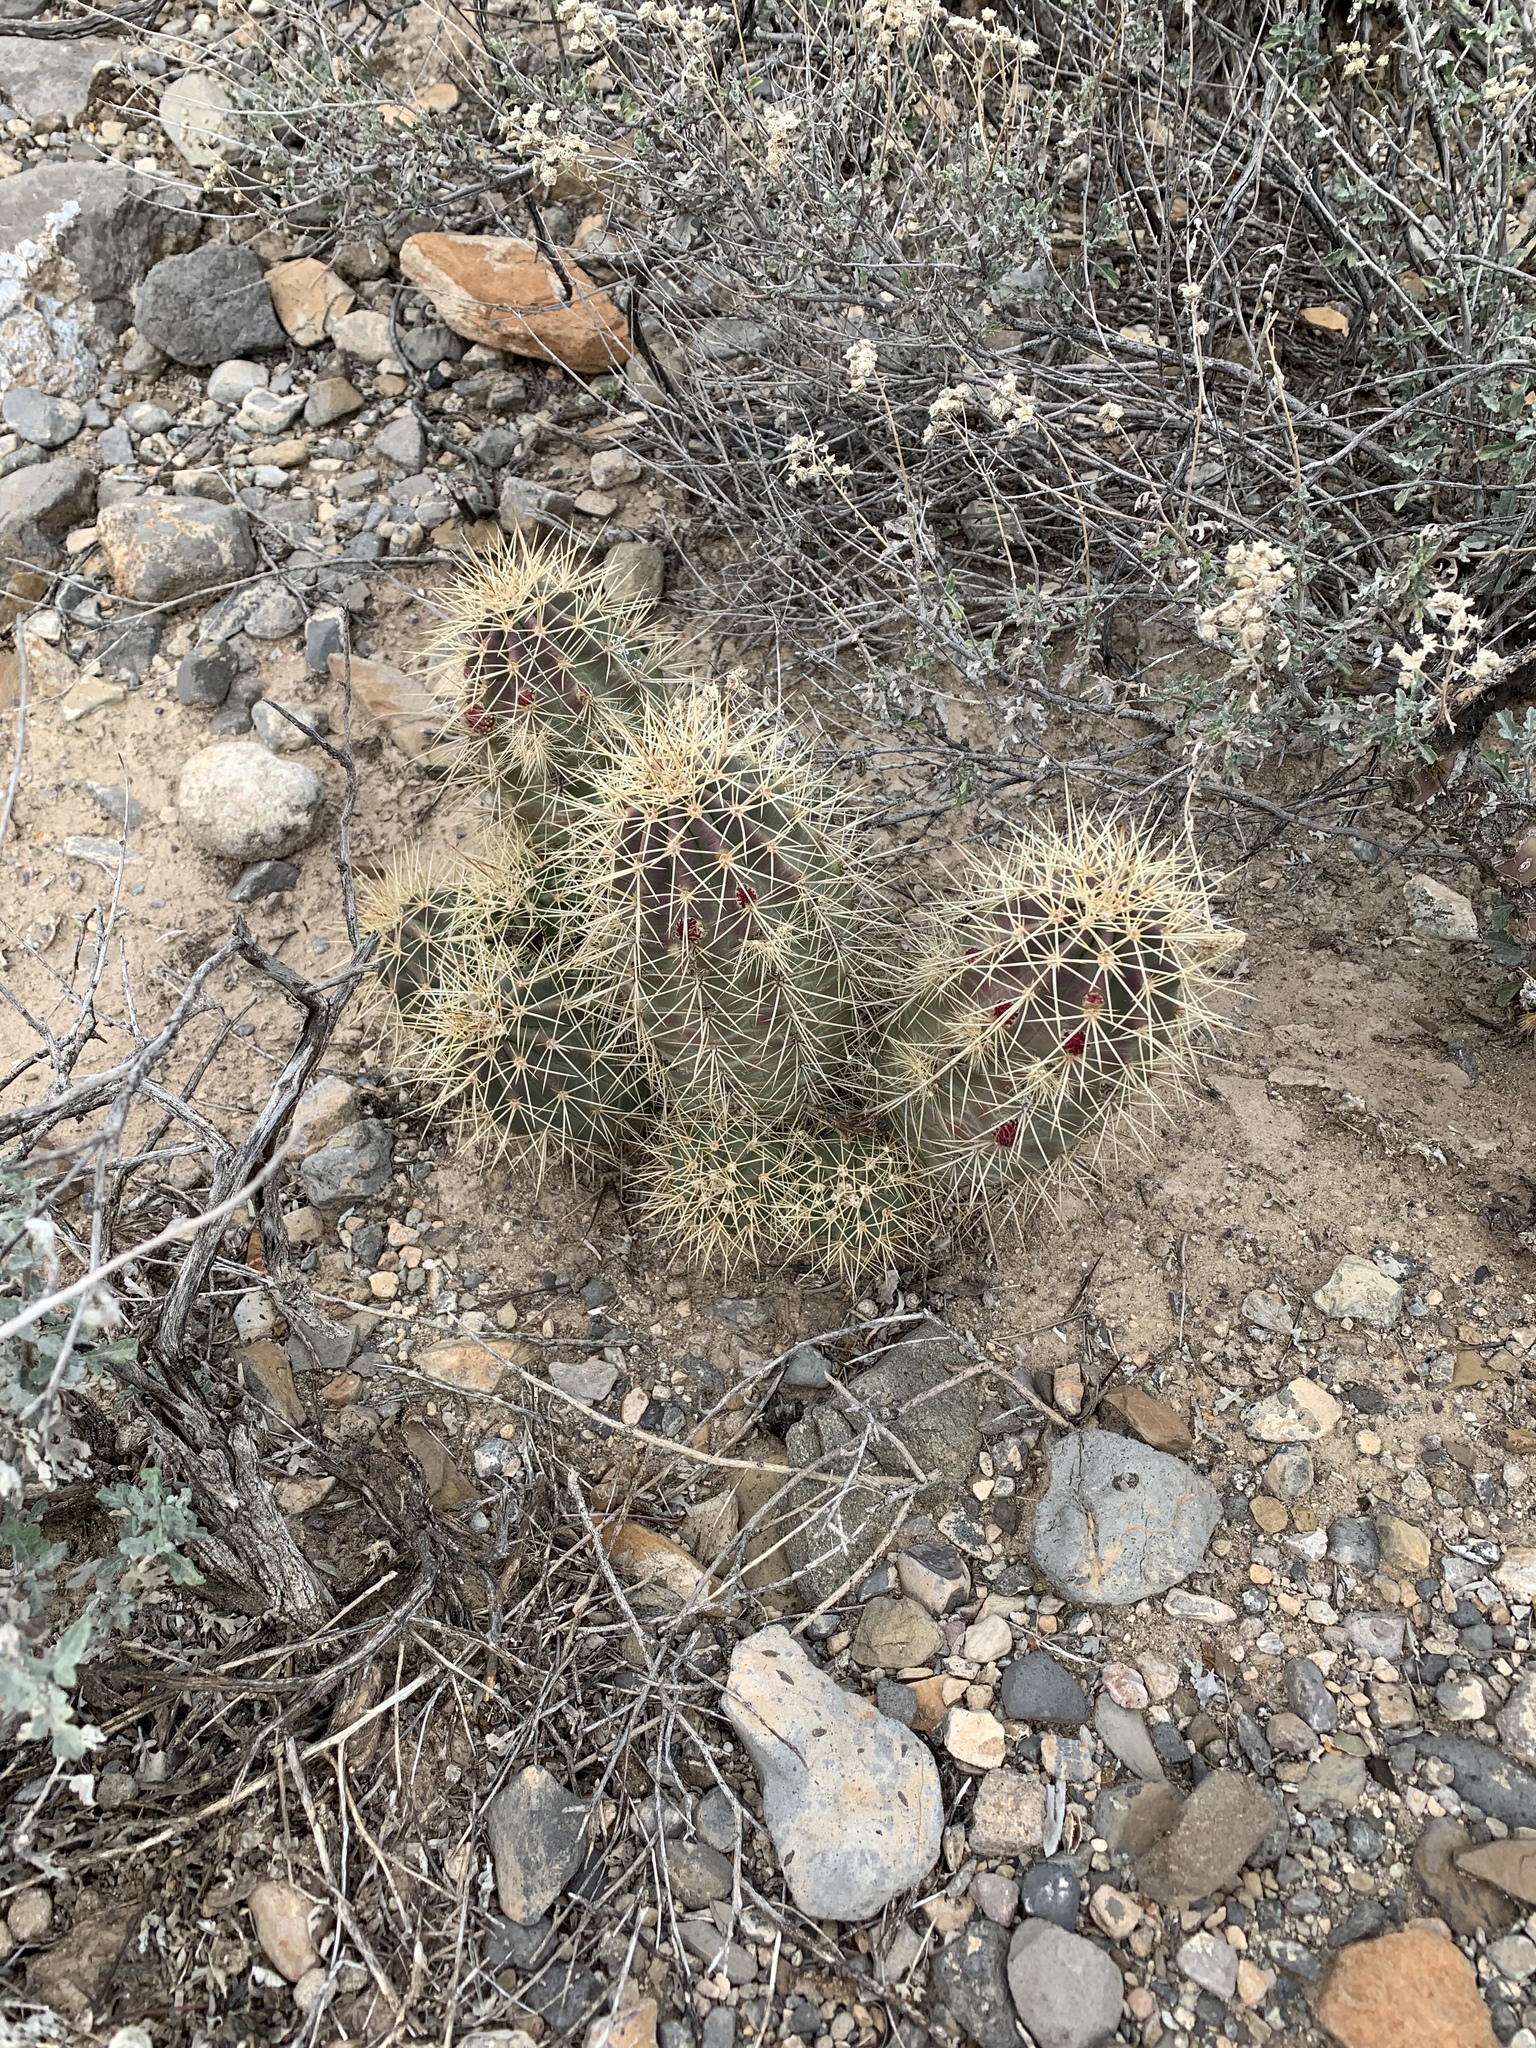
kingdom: Plantae
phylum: Tracheophyta
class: Magnoliopsida
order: Caryophyllales
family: Cactaceae
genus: Echinocereus
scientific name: Echinocereus coccineus
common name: Scarlet hedgehog cactus
